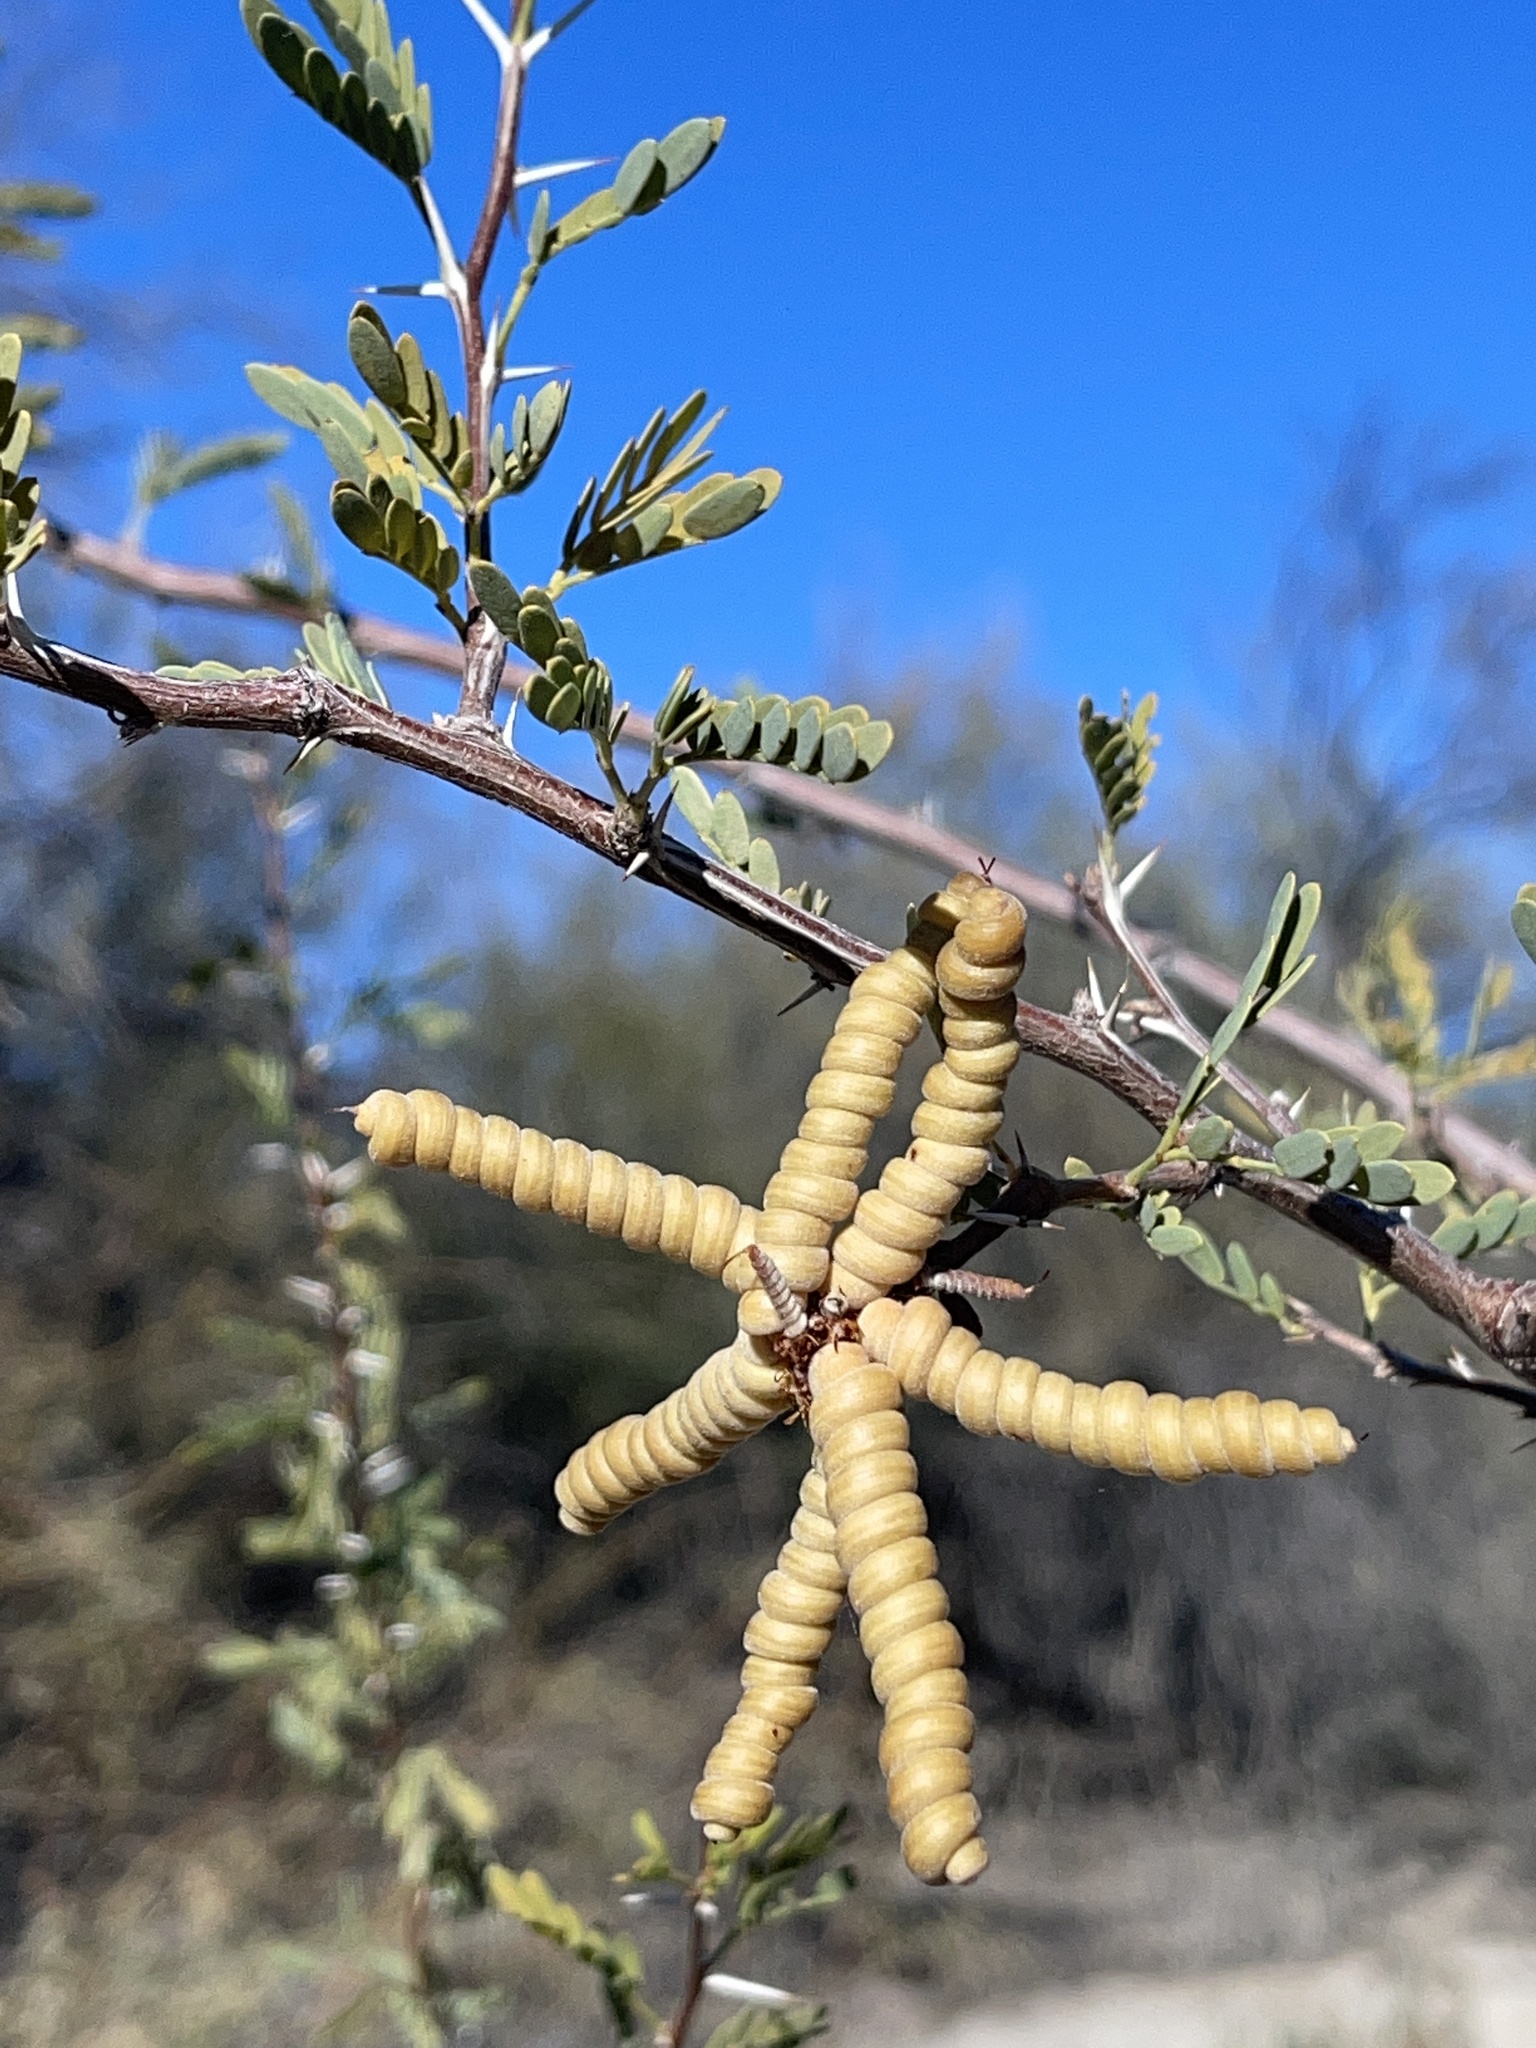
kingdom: Plantae
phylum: Tracheophyta
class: Magnoliopsida
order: Fabales
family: Fabaceae
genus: Prosopis
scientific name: Prosopis pubescens
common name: Screw-bean
